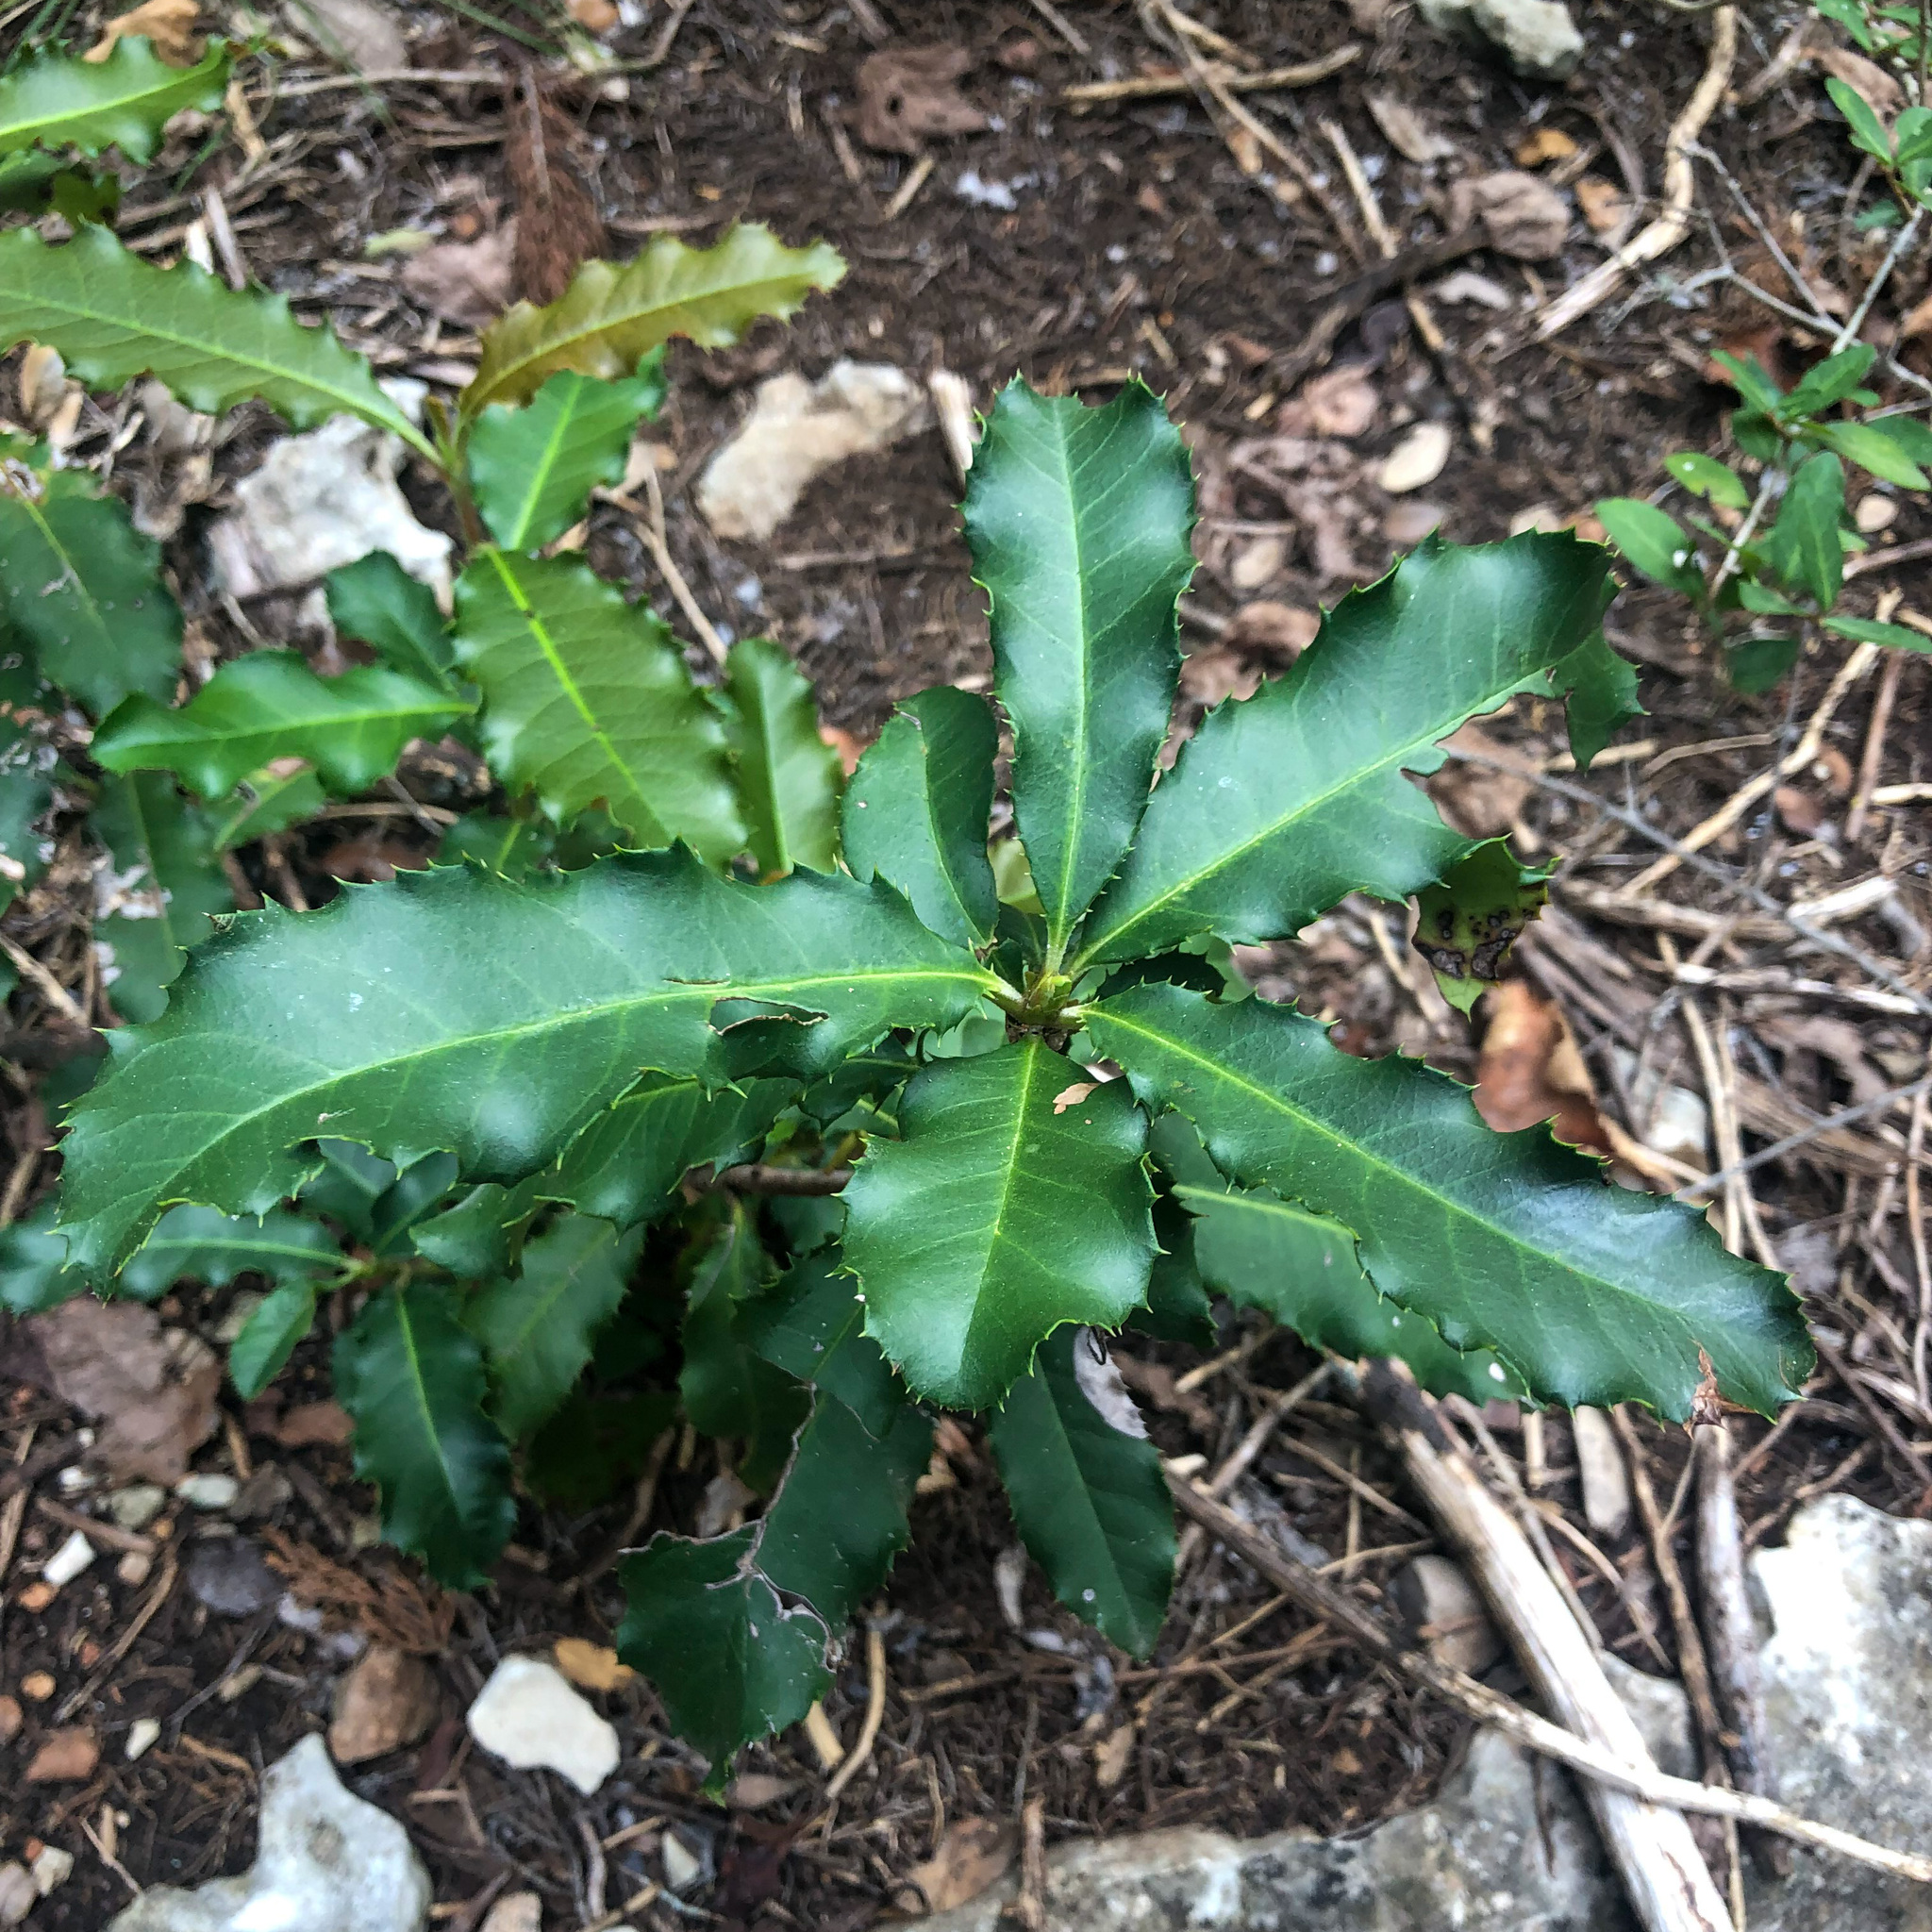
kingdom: Plantae
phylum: Tracheophyta
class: Magnoliopsida
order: Rosales
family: Rosaceae
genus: Photinia
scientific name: Photinia serratifolia
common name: Taiwanese photinia
